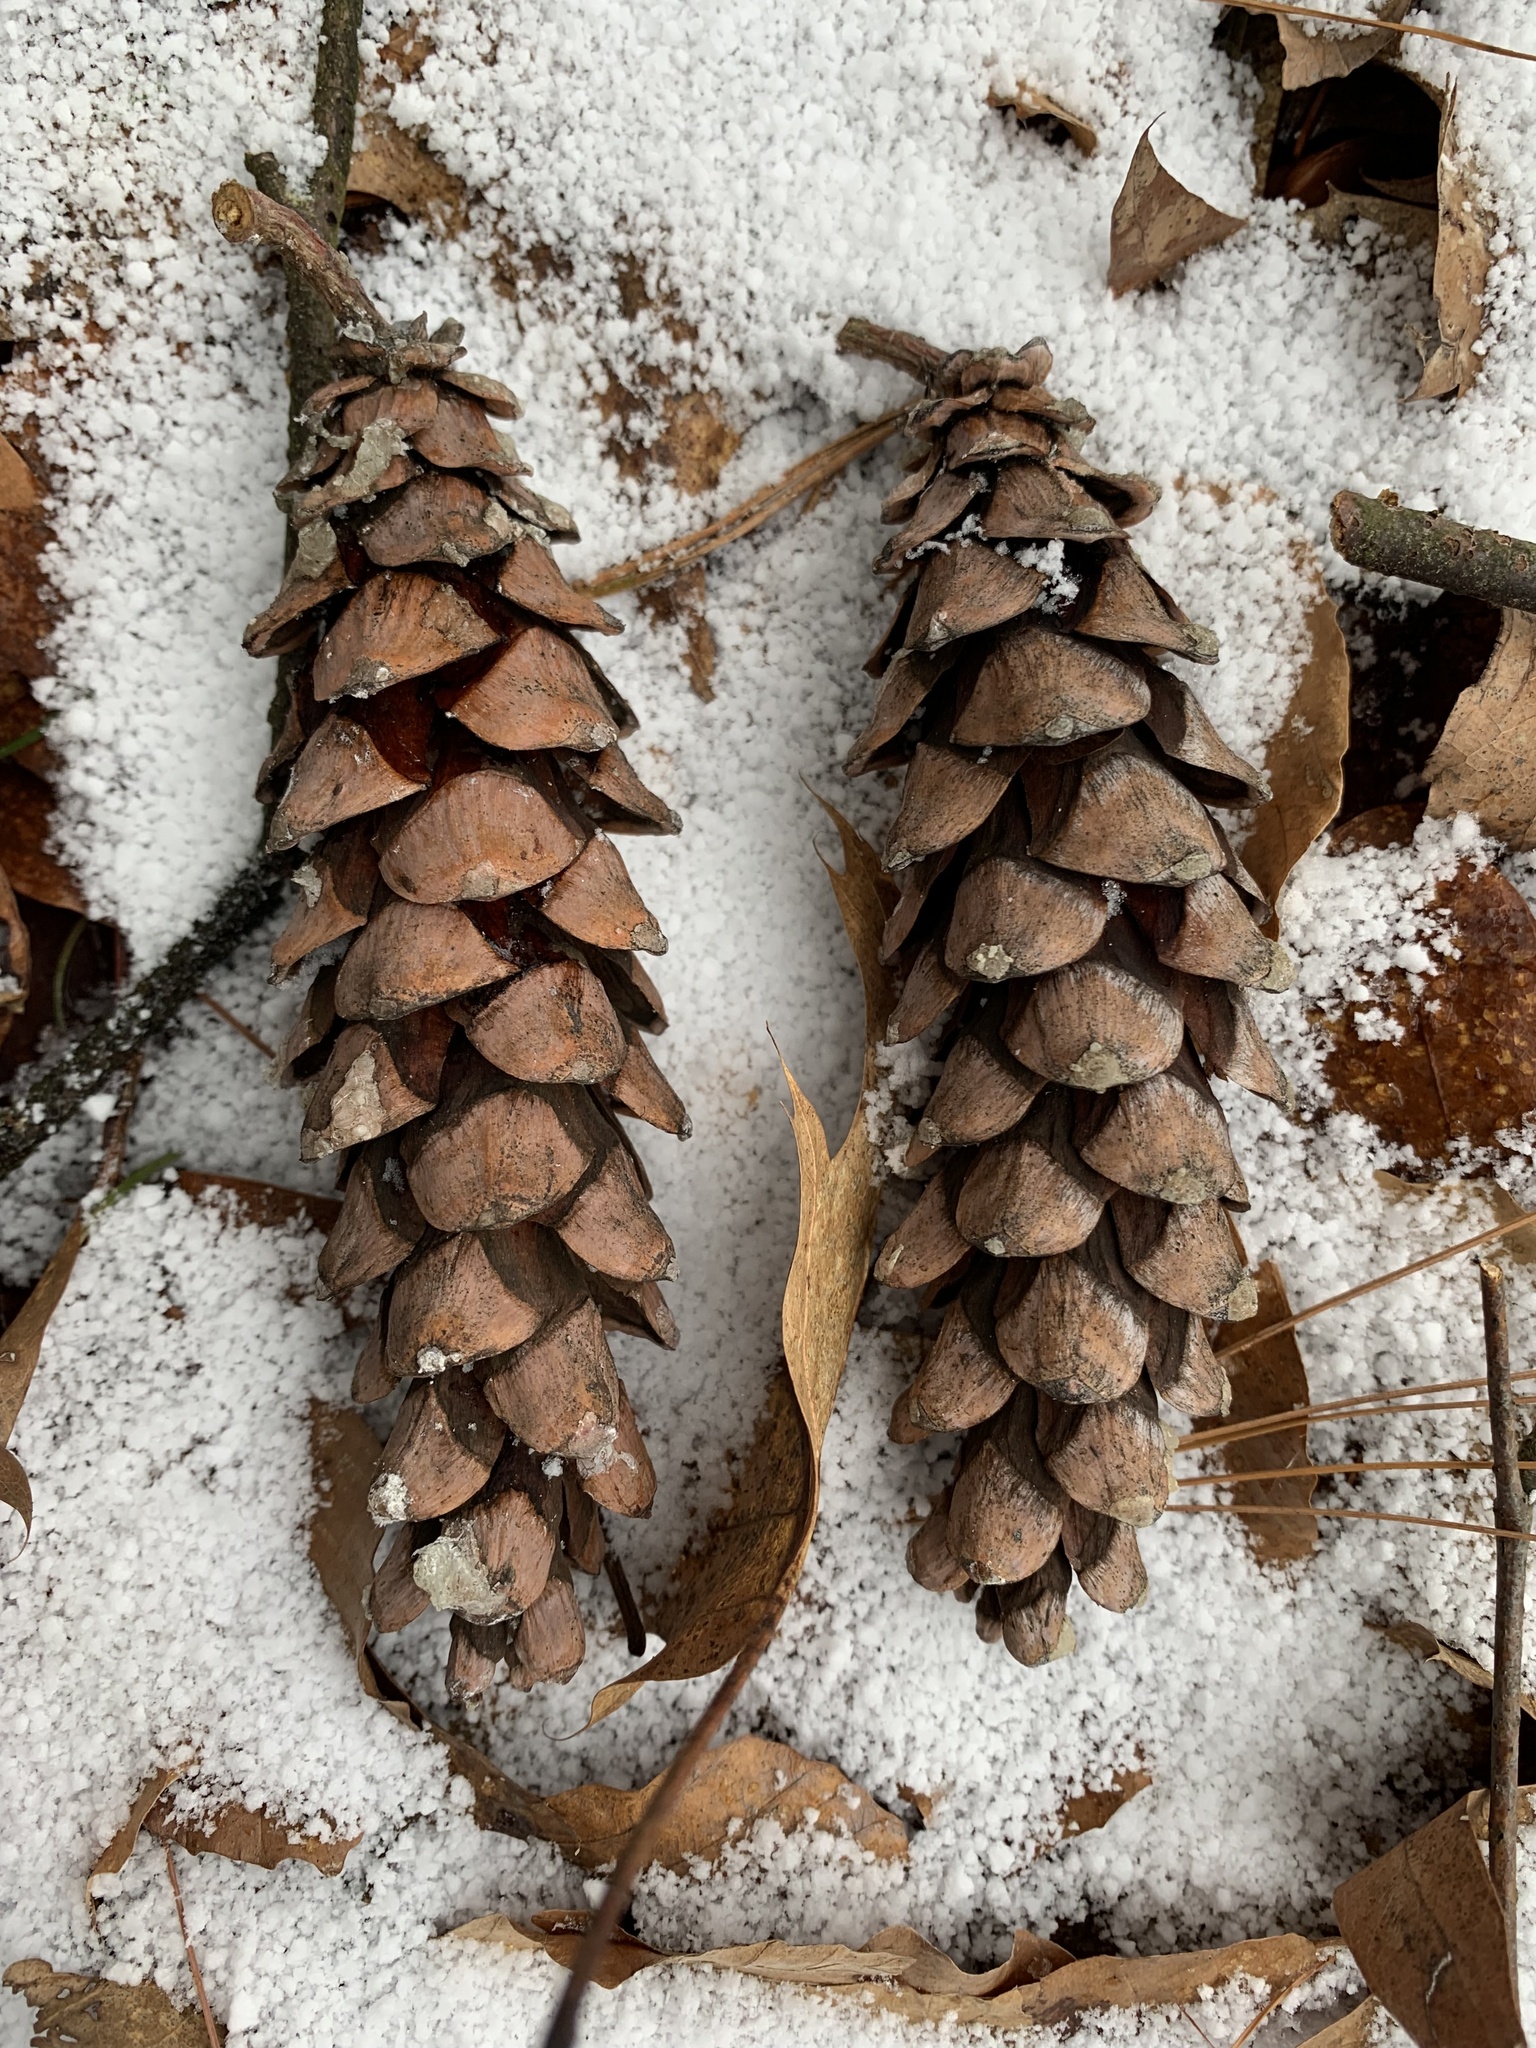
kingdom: Plantae
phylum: Tracheophyta
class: Pinopsida
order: Pinales
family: Pinaceae
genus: Pinus
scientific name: Pinus strobus
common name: Weymouth pine
